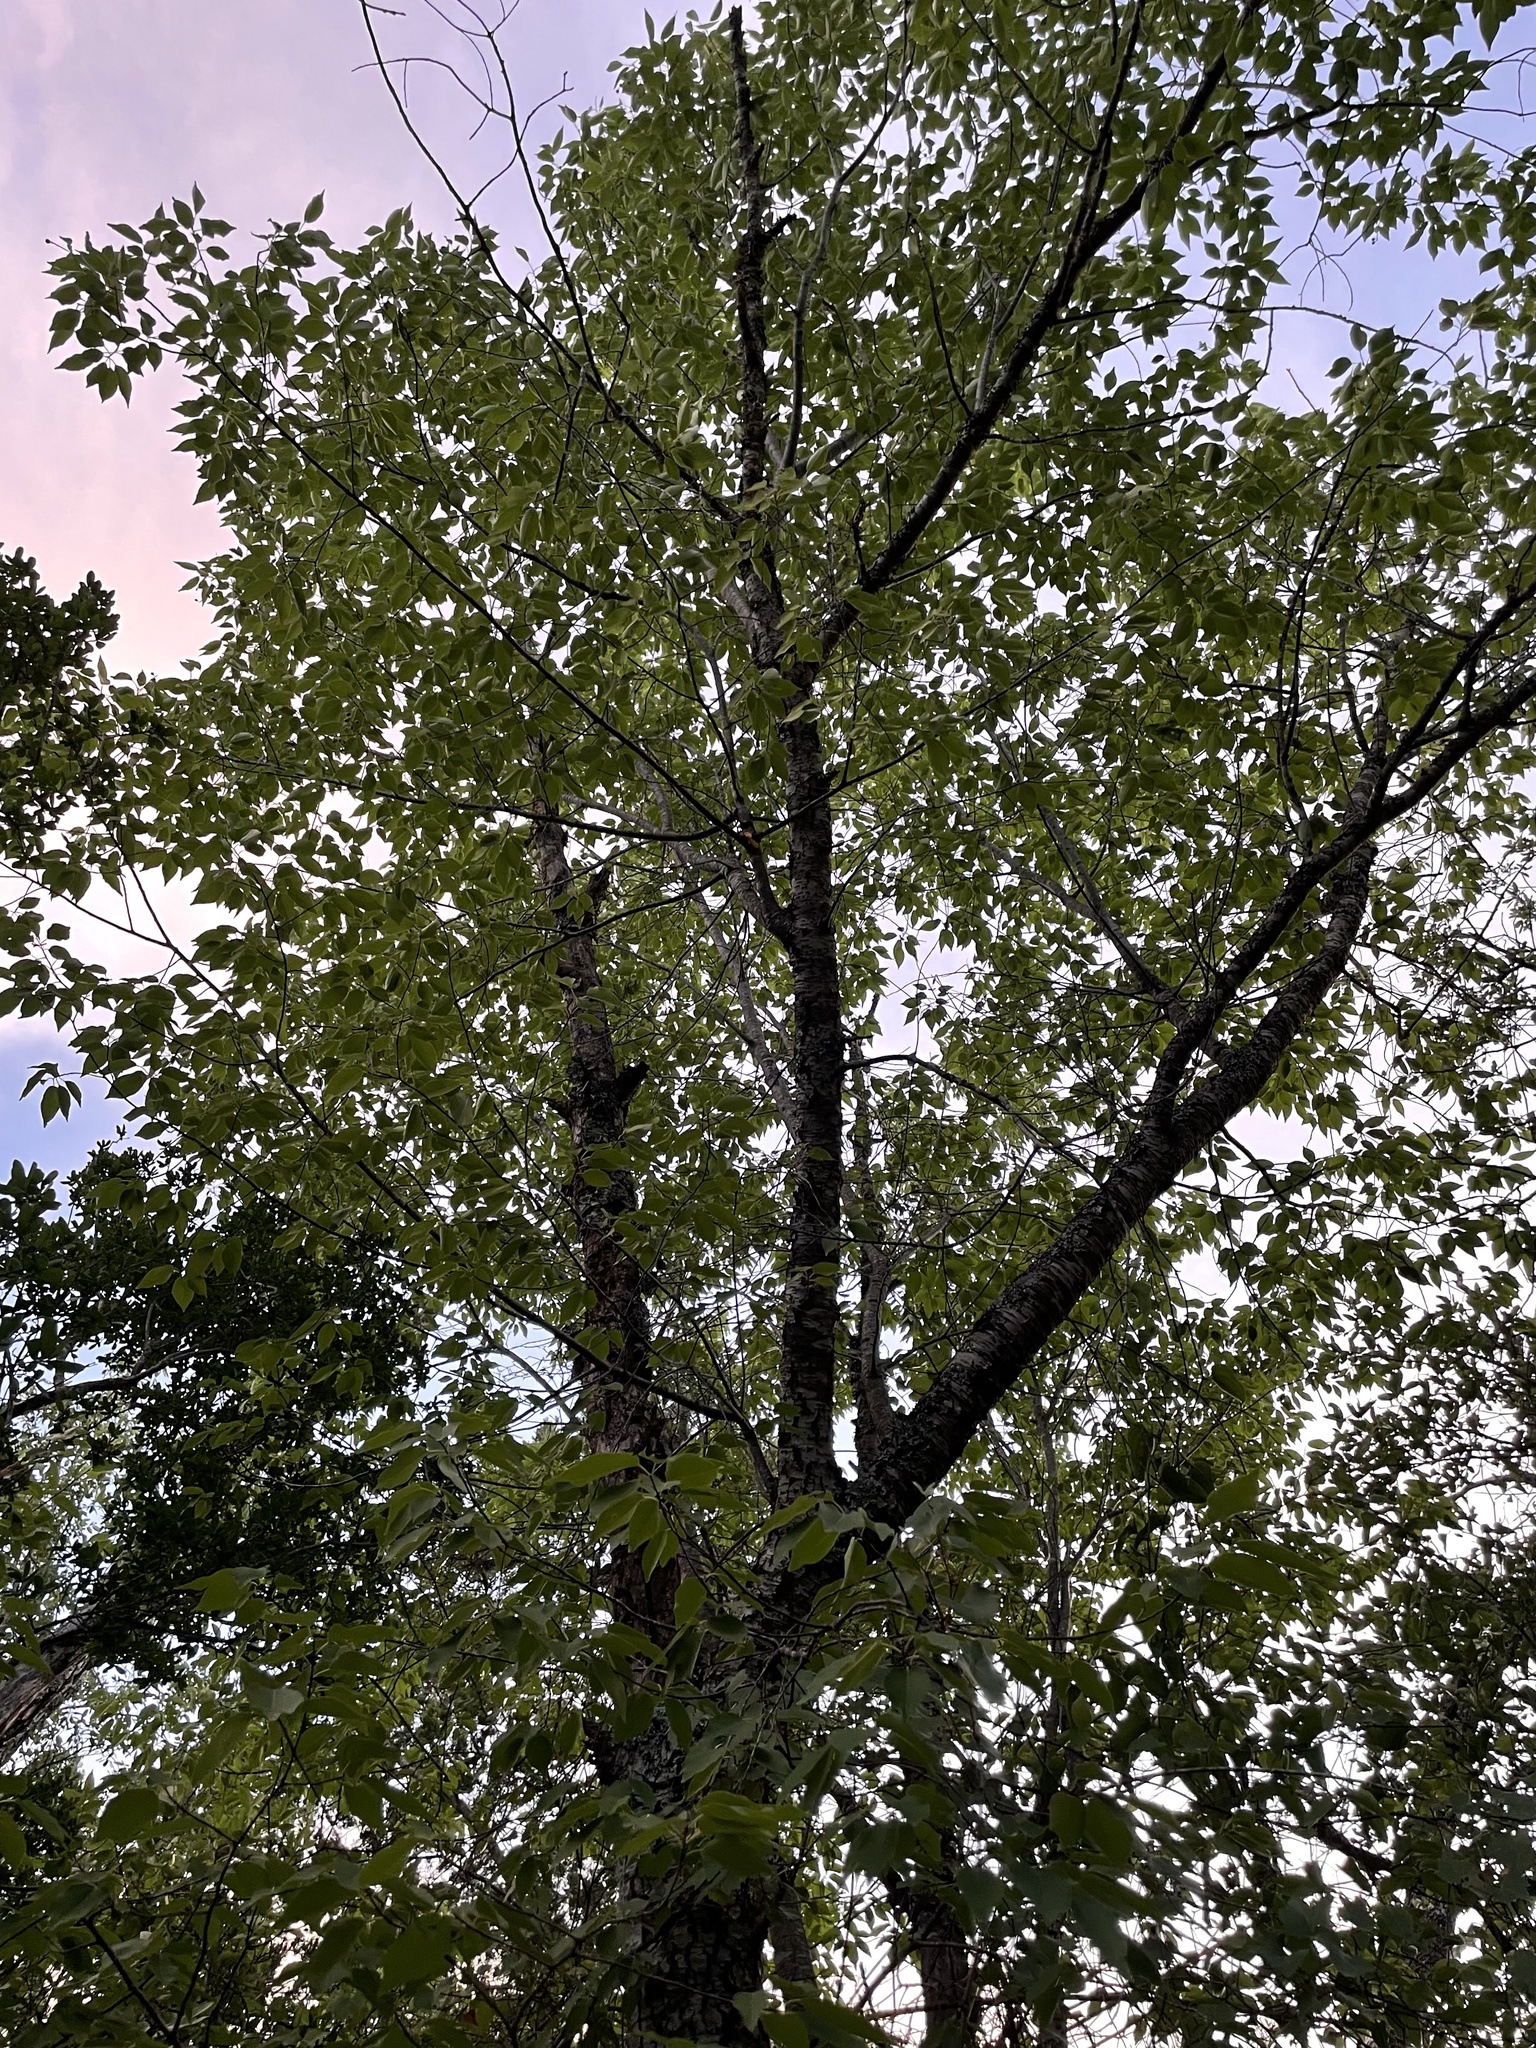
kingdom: Plantae
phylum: Tracheophyta
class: Magnoliopsida
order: Rosales
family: Rosaceae
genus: Prunus
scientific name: Prunus serotina
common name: Black cherry
